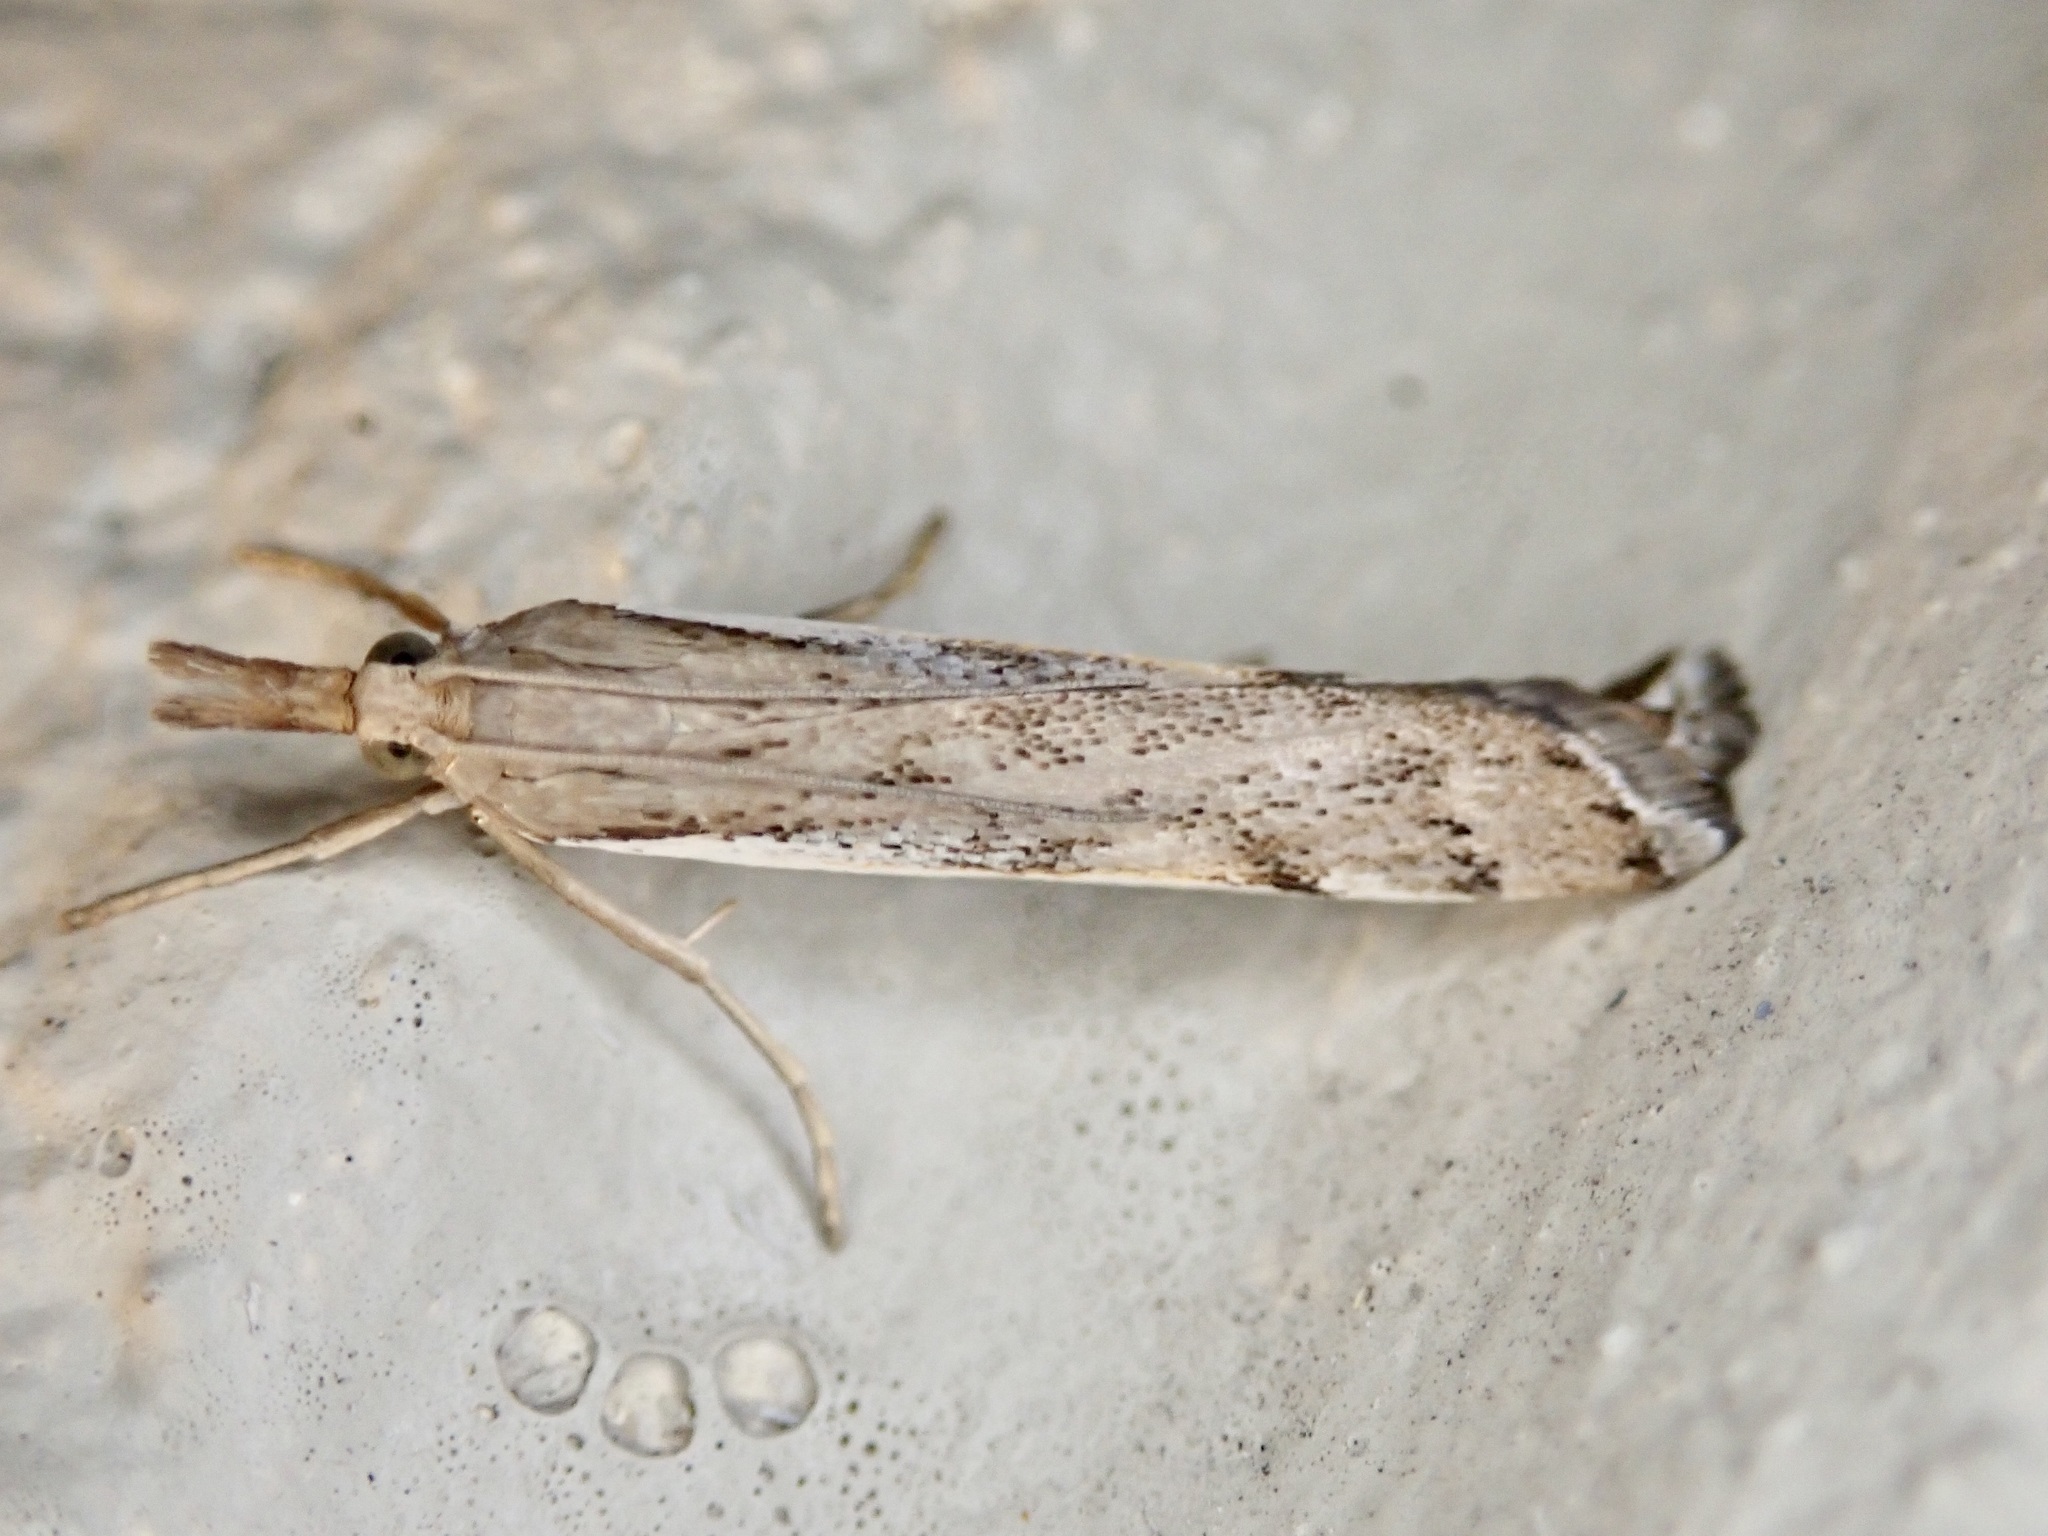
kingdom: Animalia
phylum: Arthropoda
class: Insecta
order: Lepidoptera
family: Crambidae
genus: Orocrambus
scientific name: Orocrambus flexuosellus
